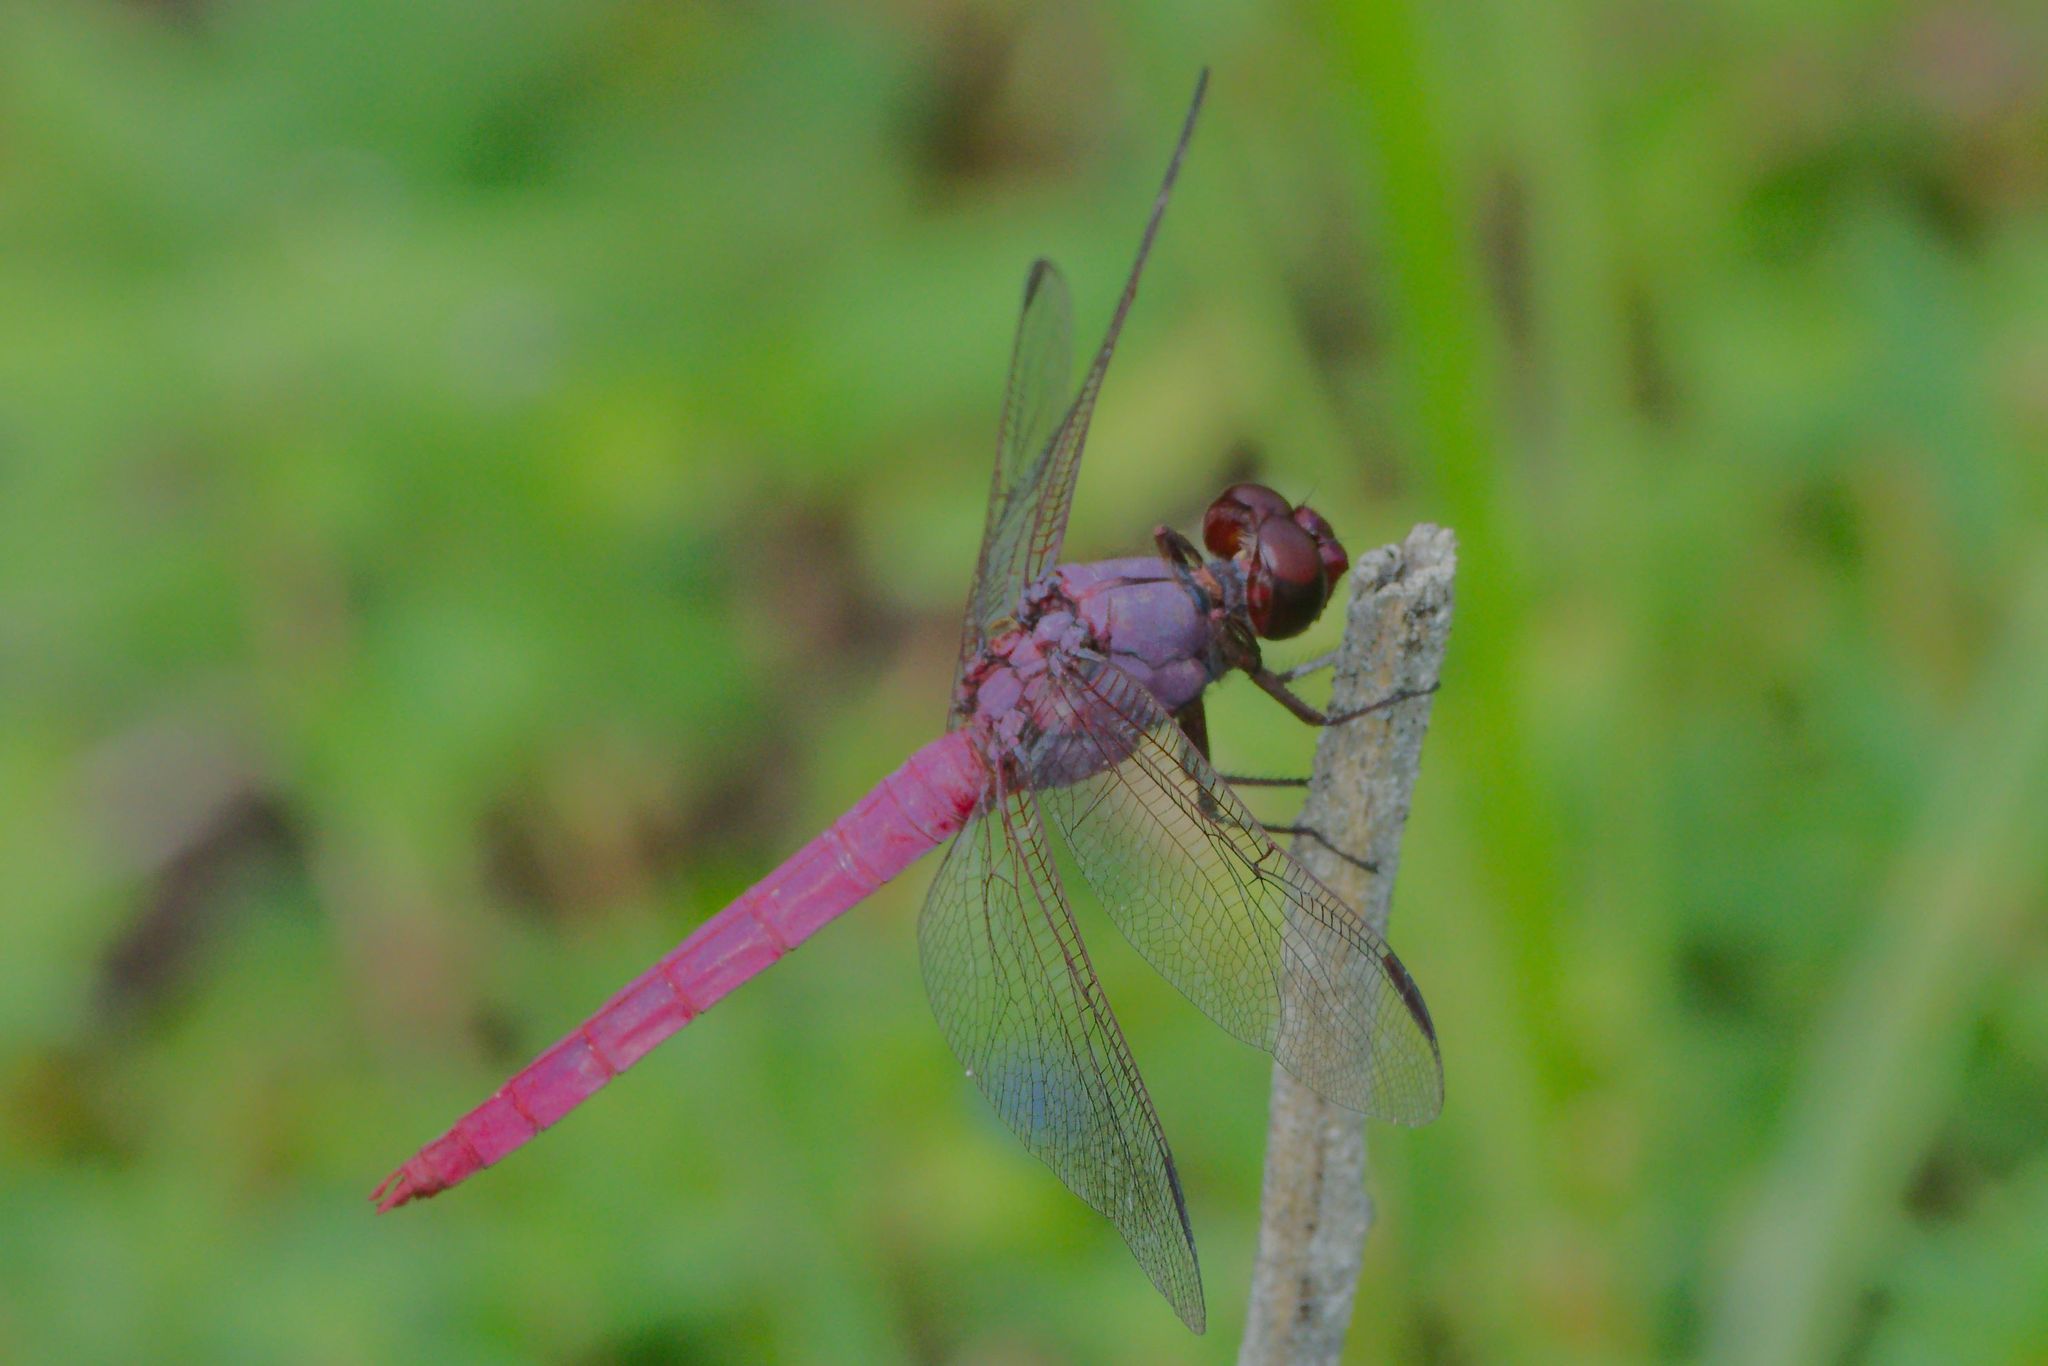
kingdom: Animalia
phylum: Arthropoda
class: Insecta
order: Odonata
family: Libellulidae
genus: Orthemis
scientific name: Orthemis ferruginea
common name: Roseate skimmer
